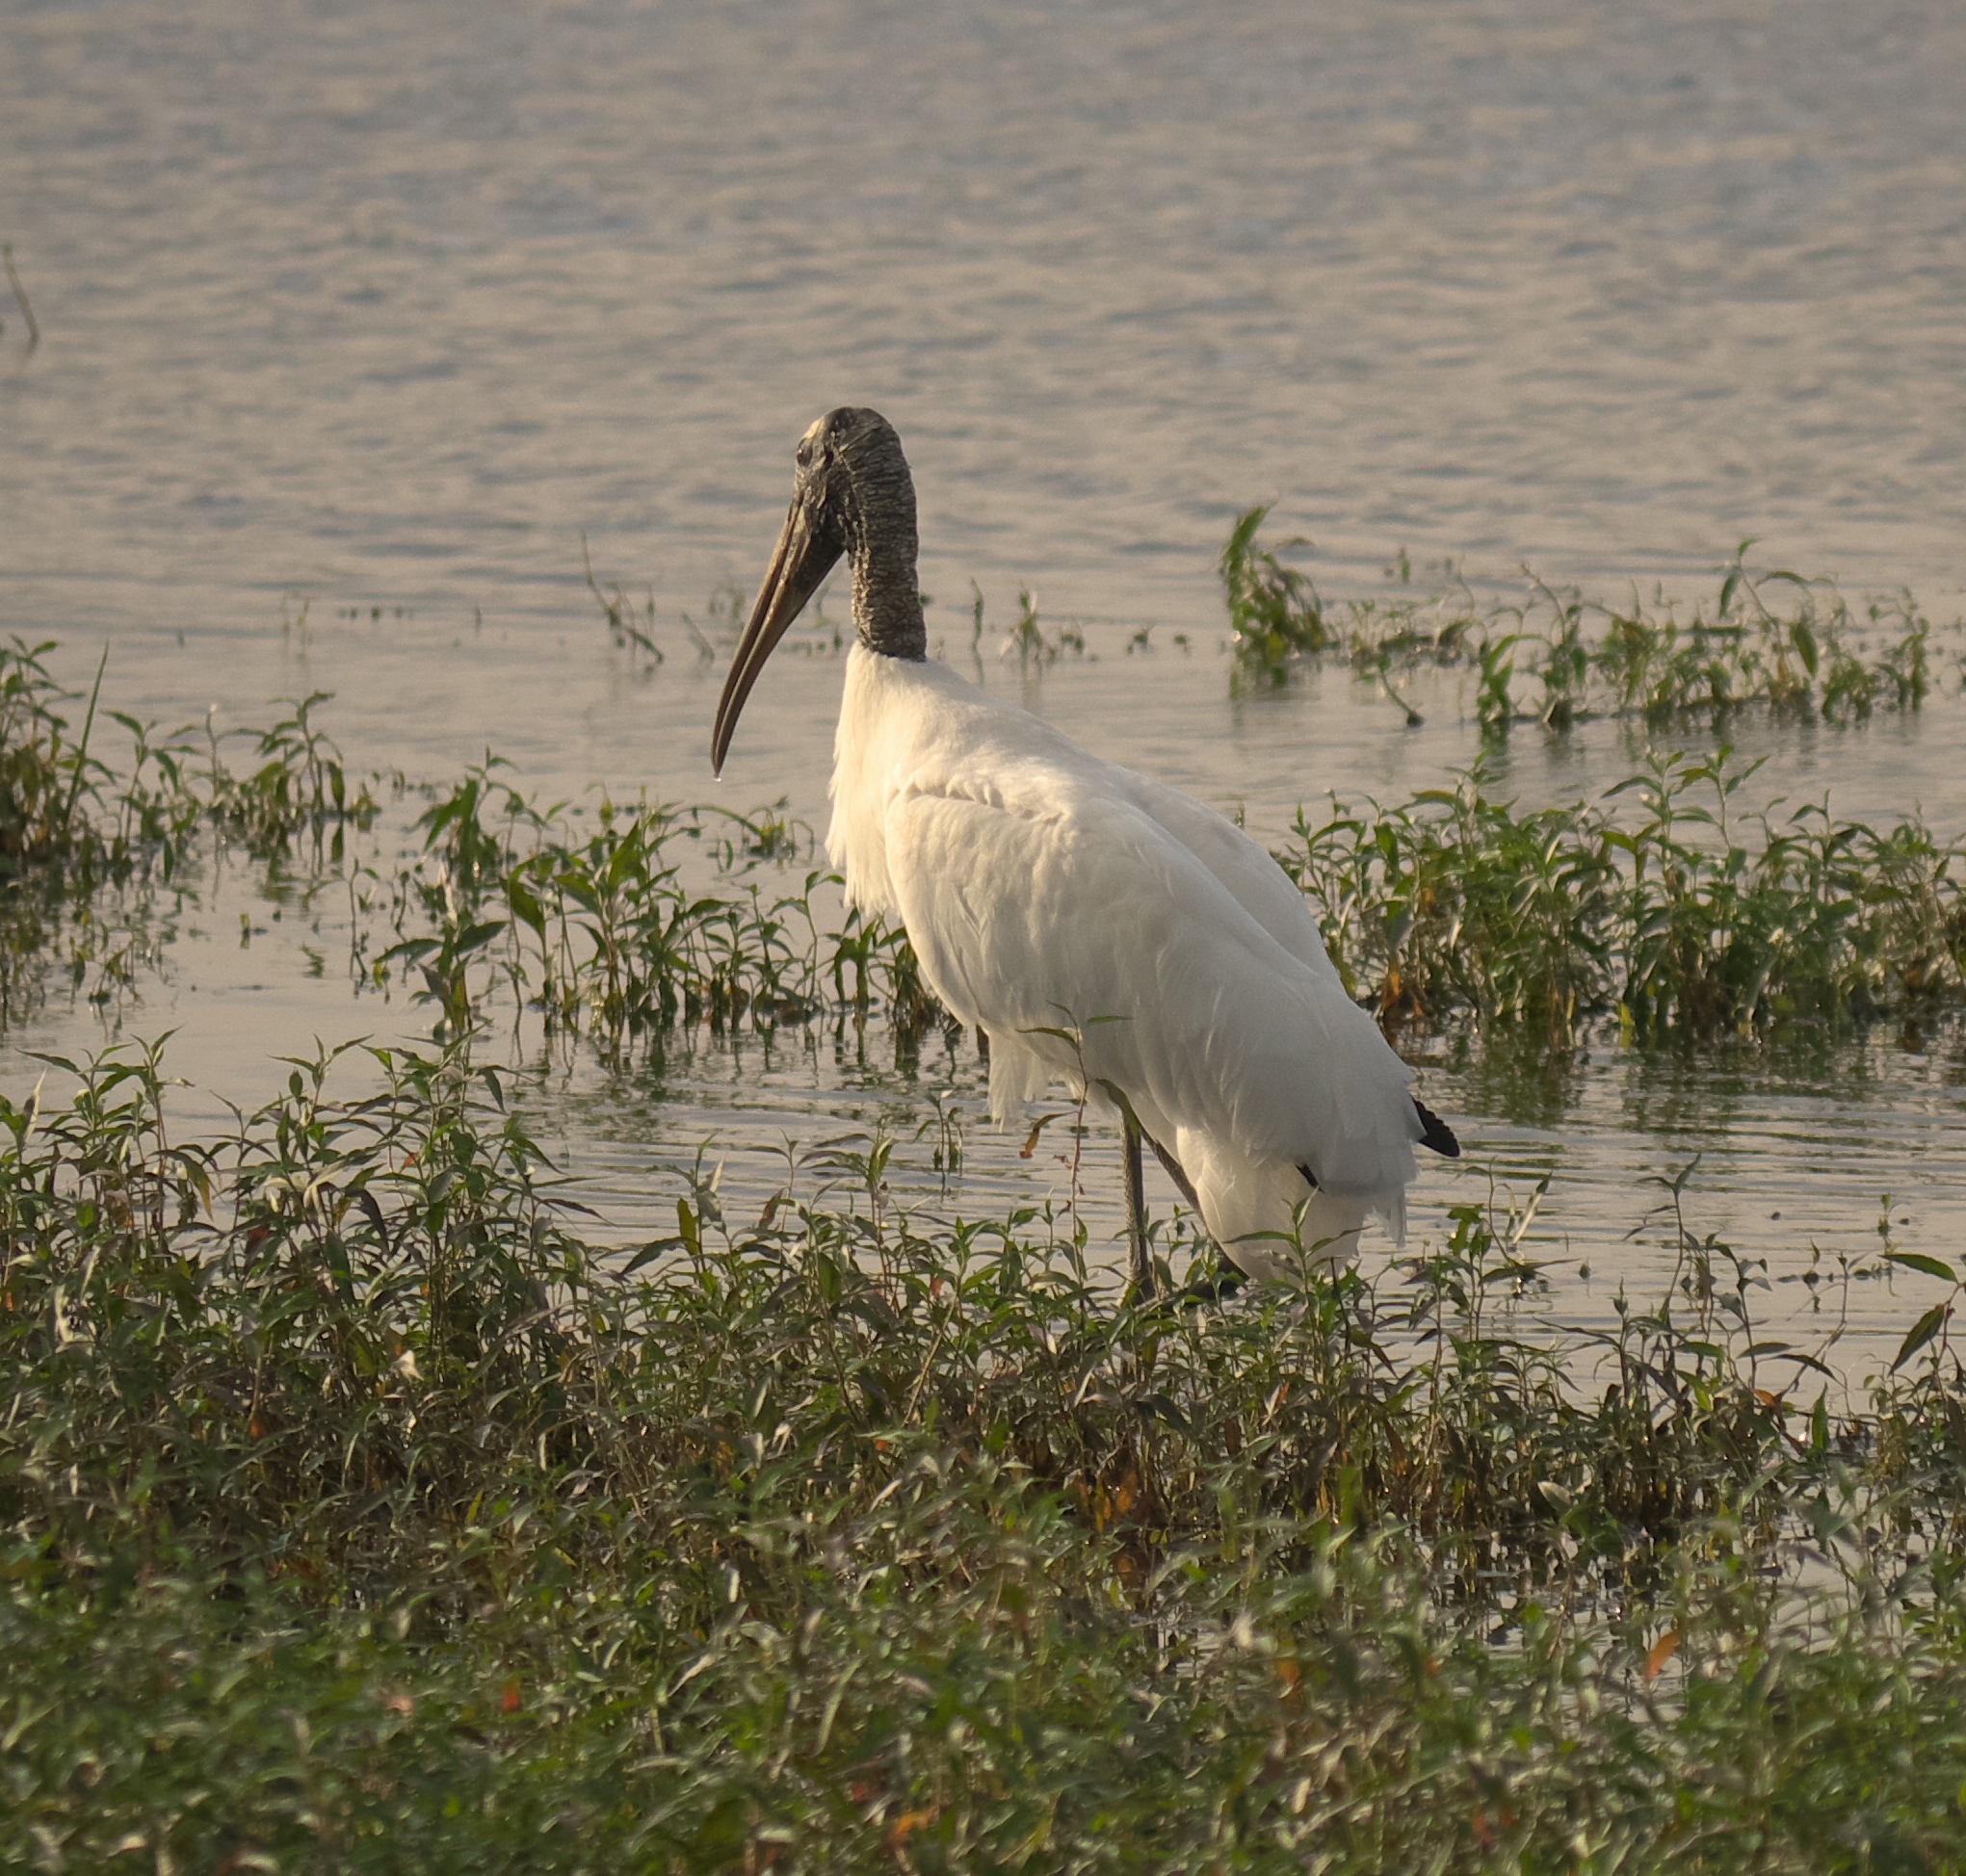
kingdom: Animalia
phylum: Chordata
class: Aves
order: Ciconiiformes
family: Ciconiidae
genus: Mycteria
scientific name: Mycteria americana
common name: Wood stork
